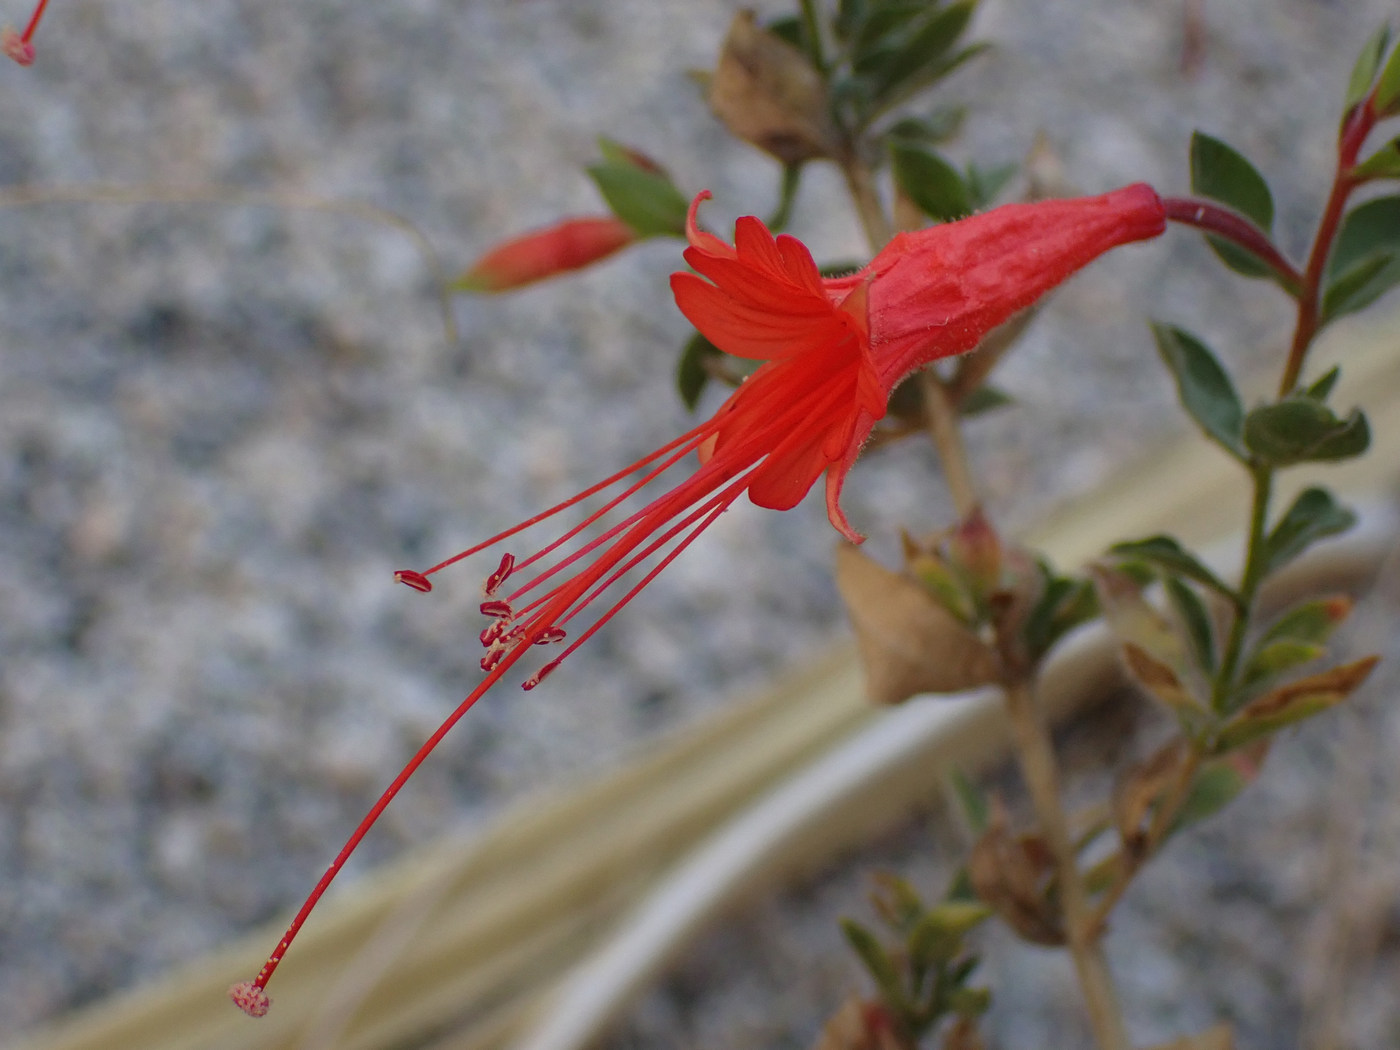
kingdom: Plantae
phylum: Tracheophyta
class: Magnoliopsida
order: Myrtales
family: Onagraceae
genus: Epilobium
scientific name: Epilobium canum
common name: California-fuchsia
